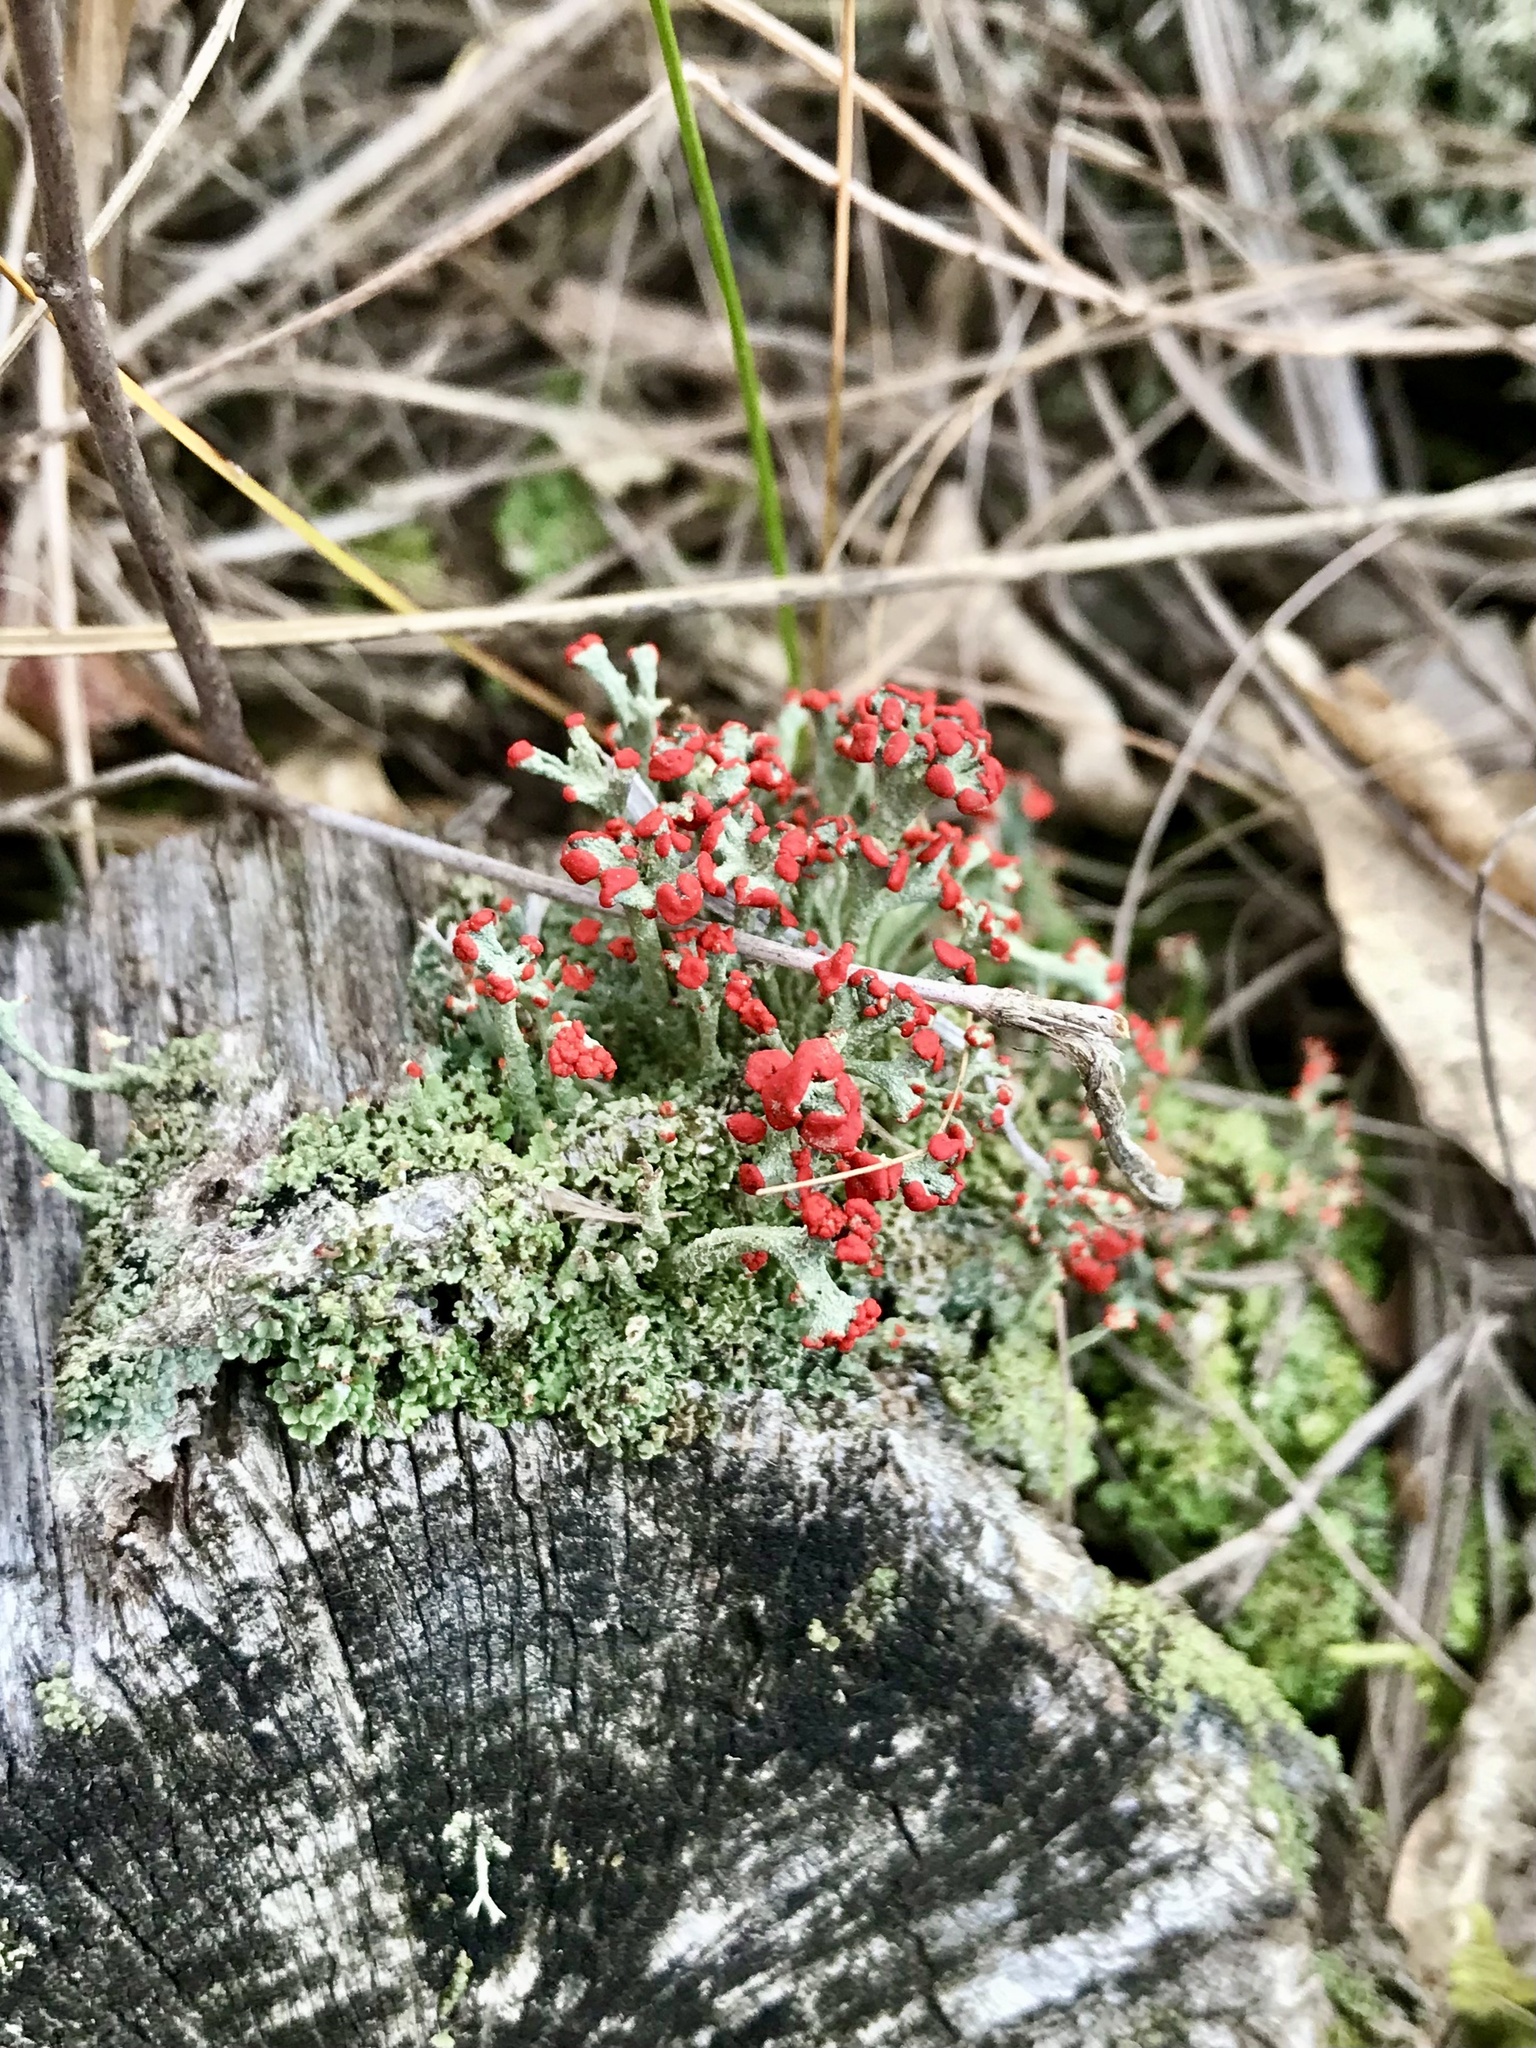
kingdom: Fungi
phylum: Ascomycota
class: Lecanoromycetes
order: Lecanorales
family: Cladoniaceae
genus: Cladonia
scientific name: Cladonia cristatella
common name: British soldier lichen
